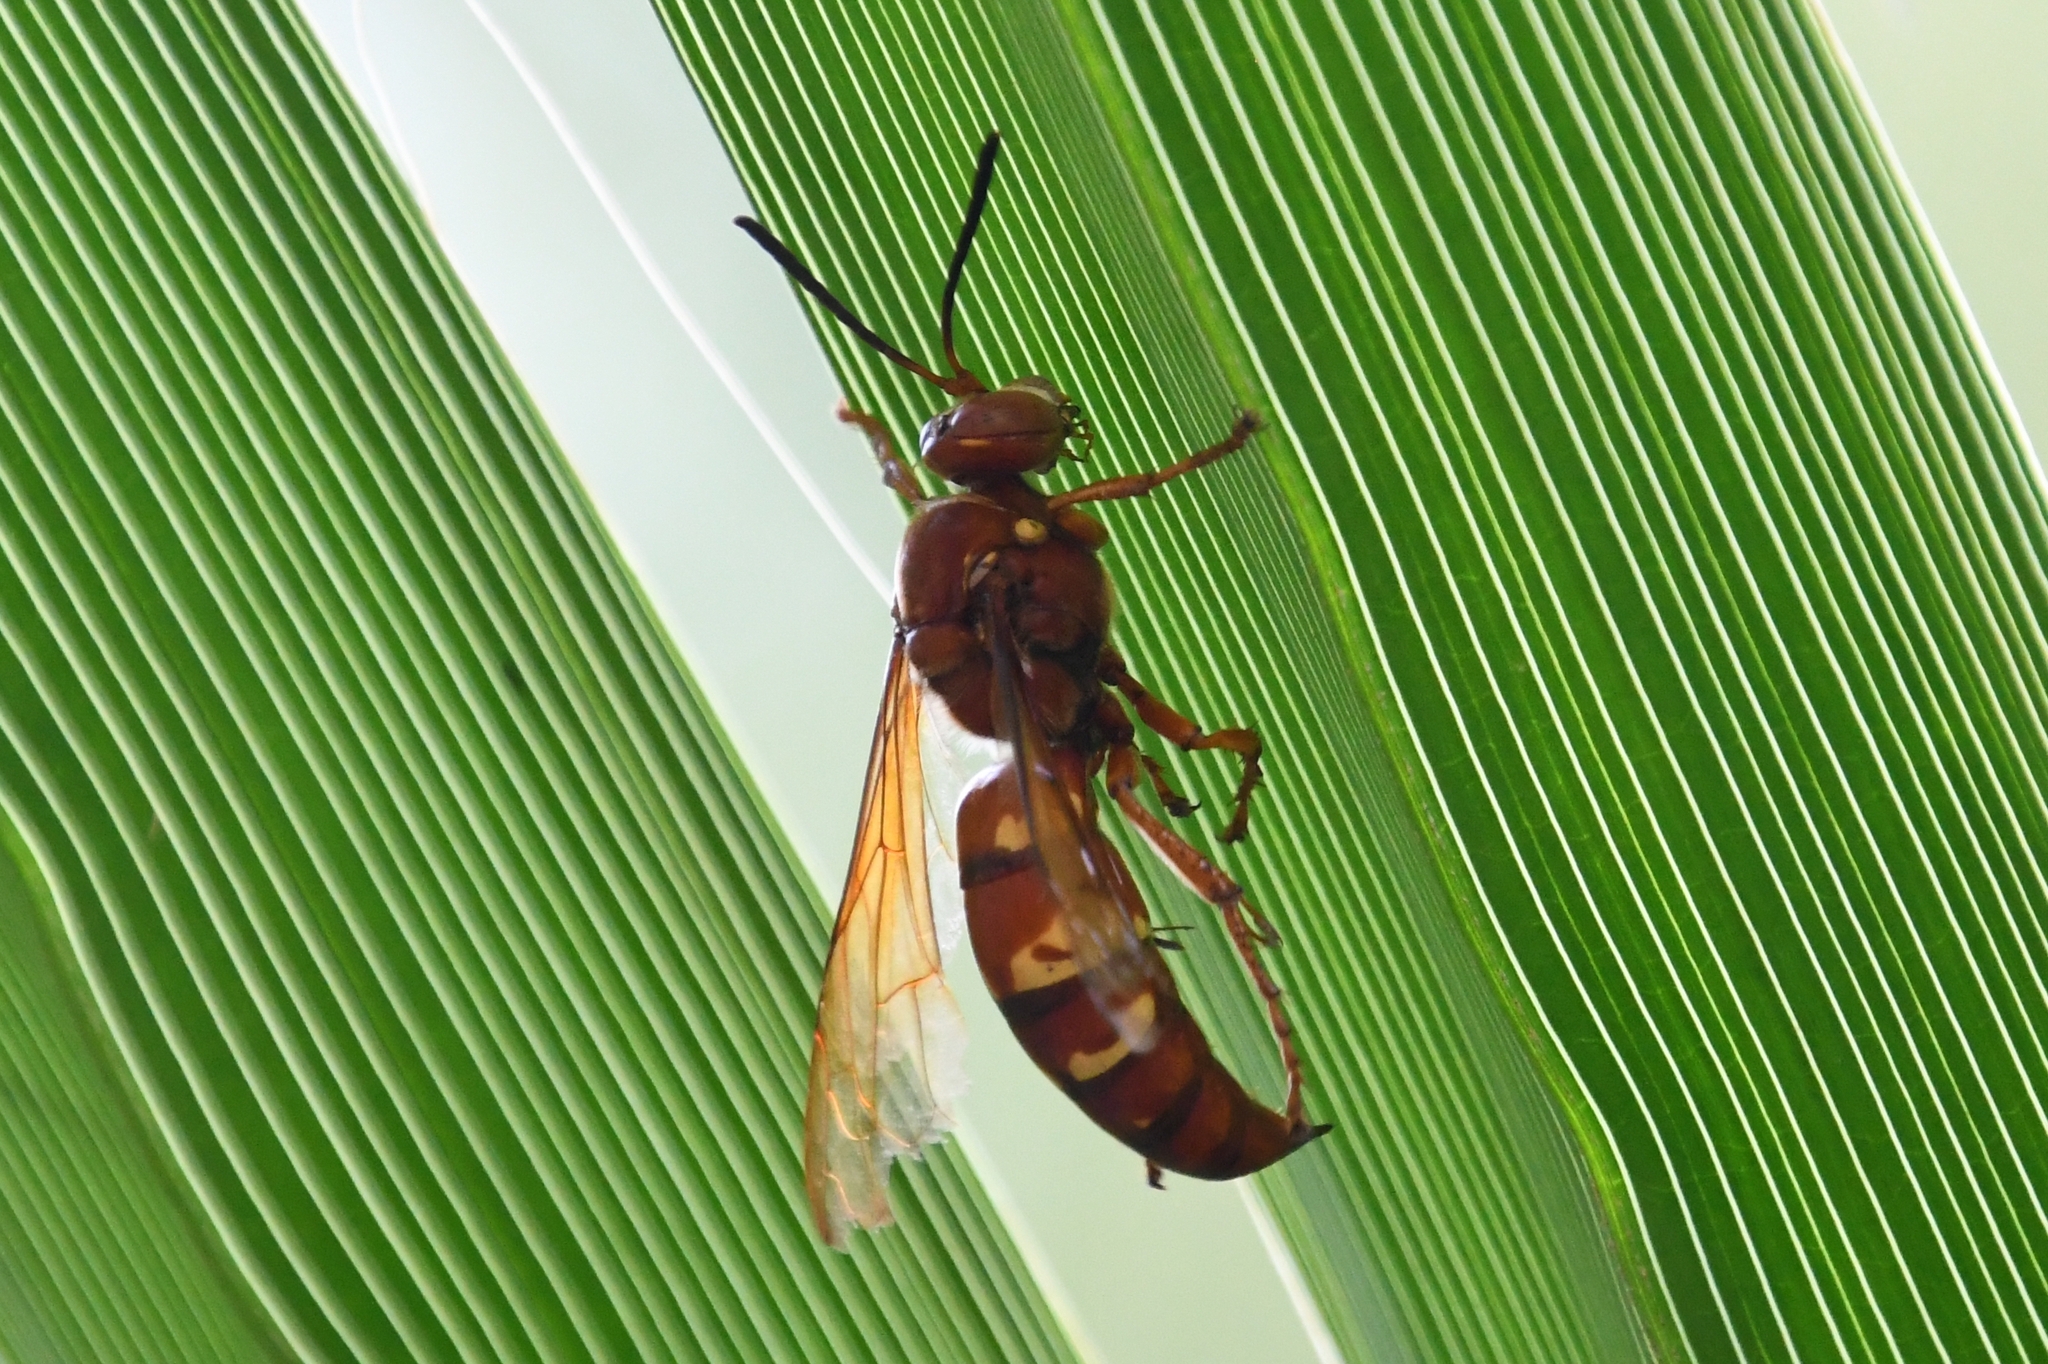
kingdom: Animalia
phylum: Arthropoda
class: Insecta
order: Hymenoptera
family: Crabronidae
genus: Sphecius
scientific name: Sphecius convallis
